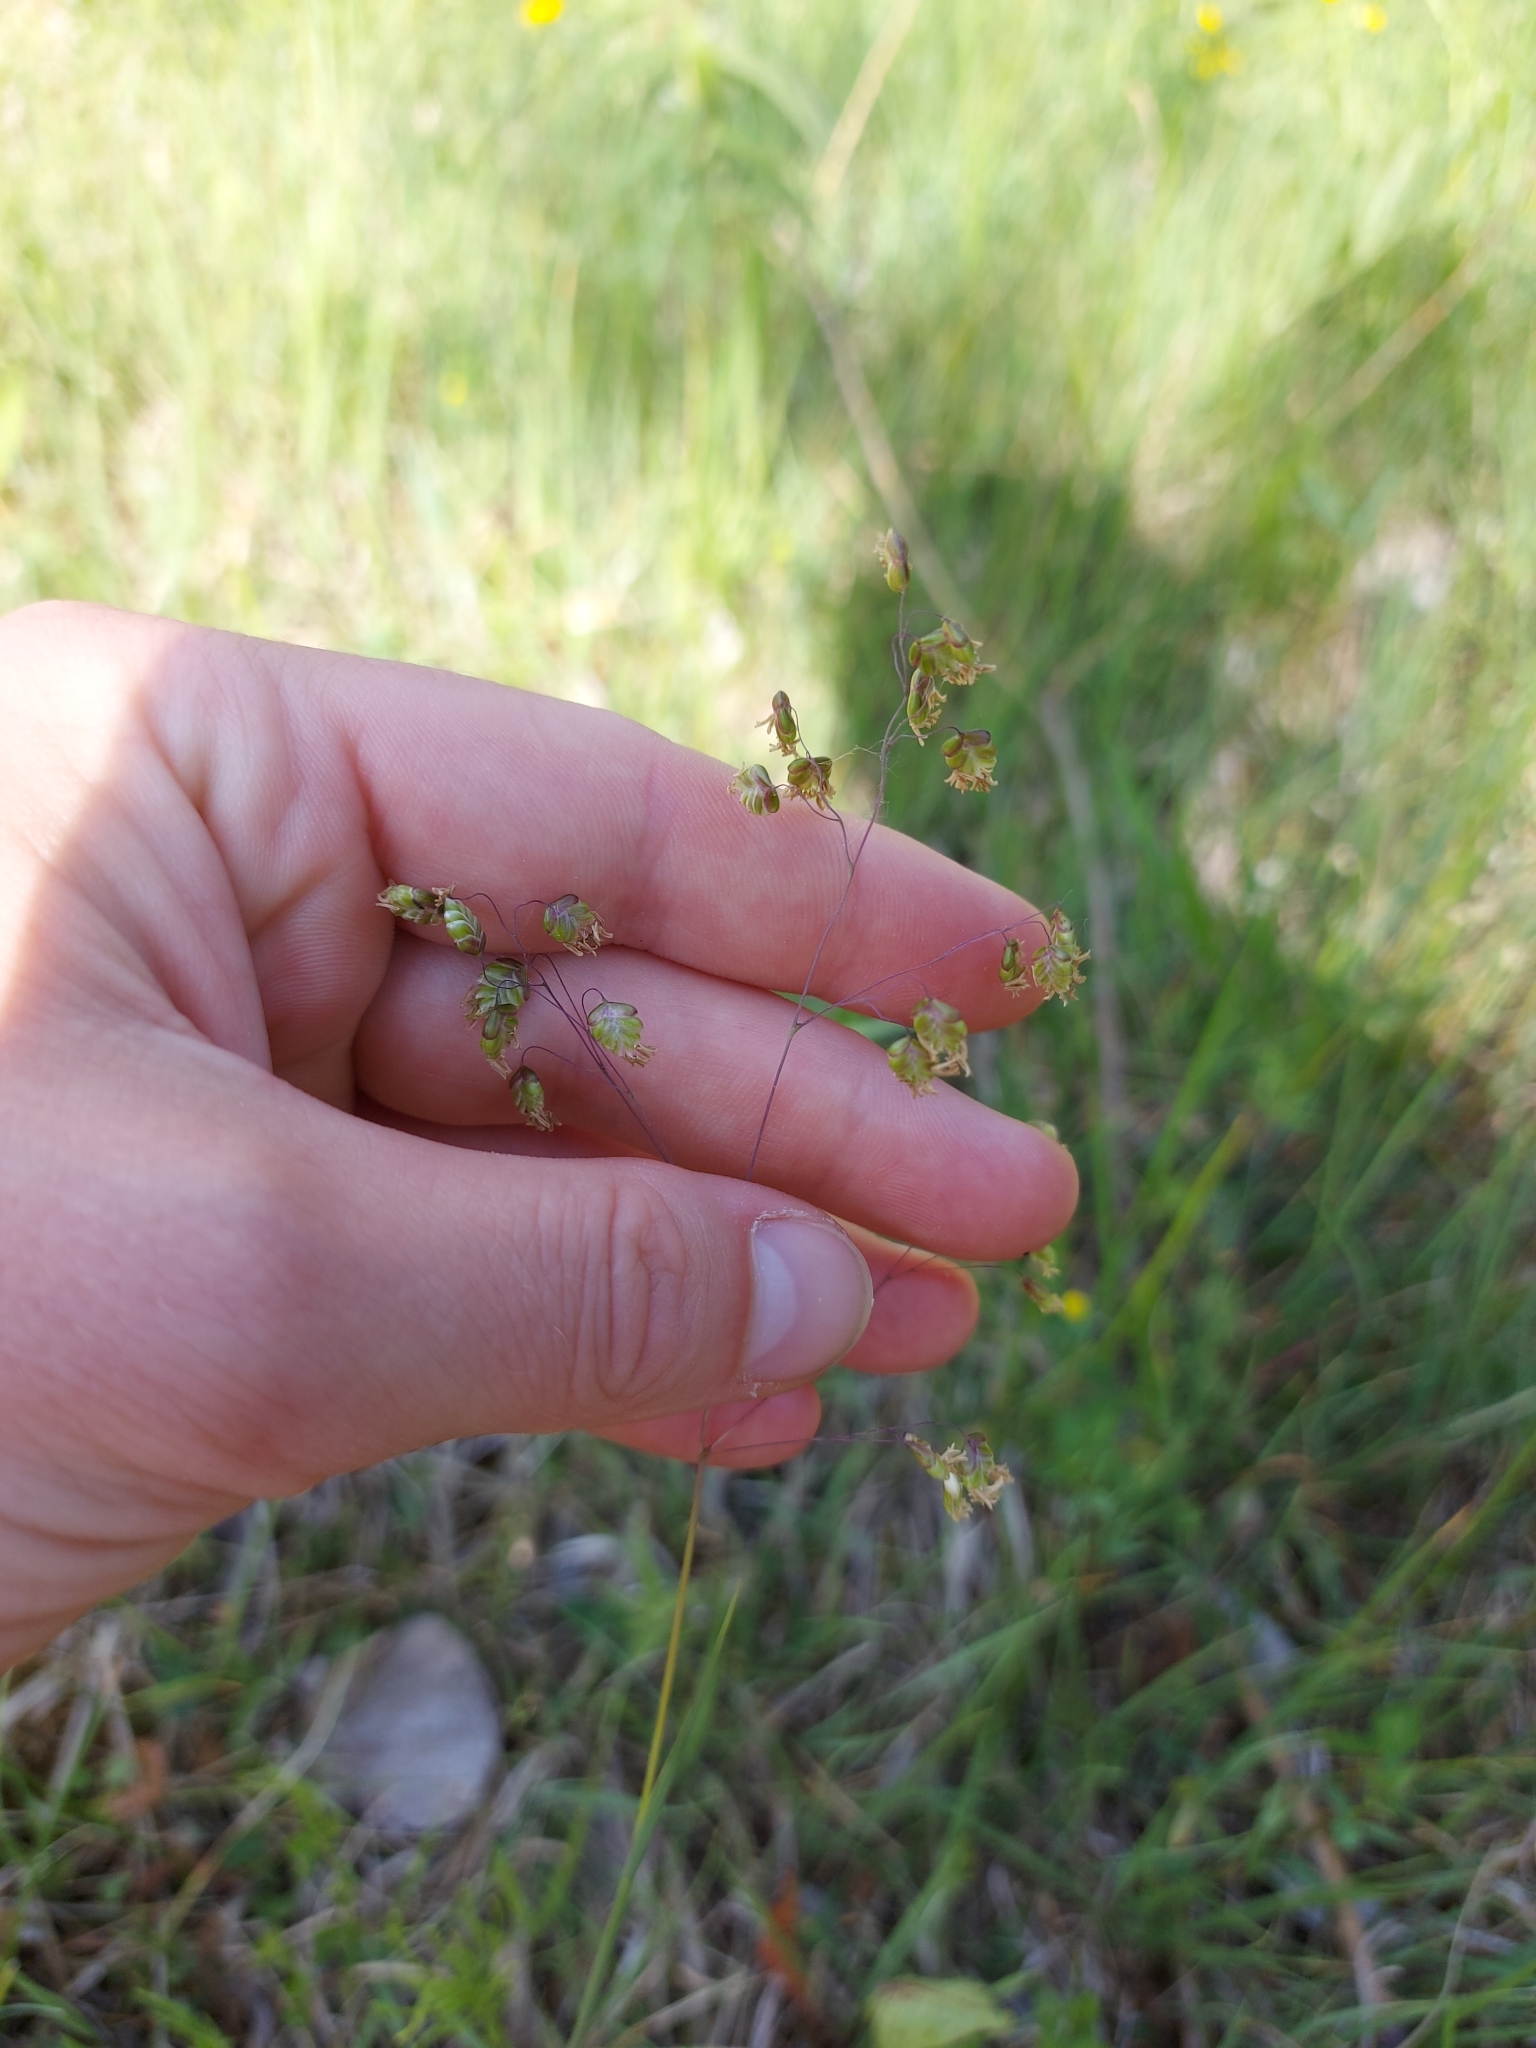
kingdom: Plantae
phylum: Tracheophyta
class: Liliopsida
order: Poales
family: Poaceae
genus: Briza
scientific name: Briza media
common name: Quaking grass
